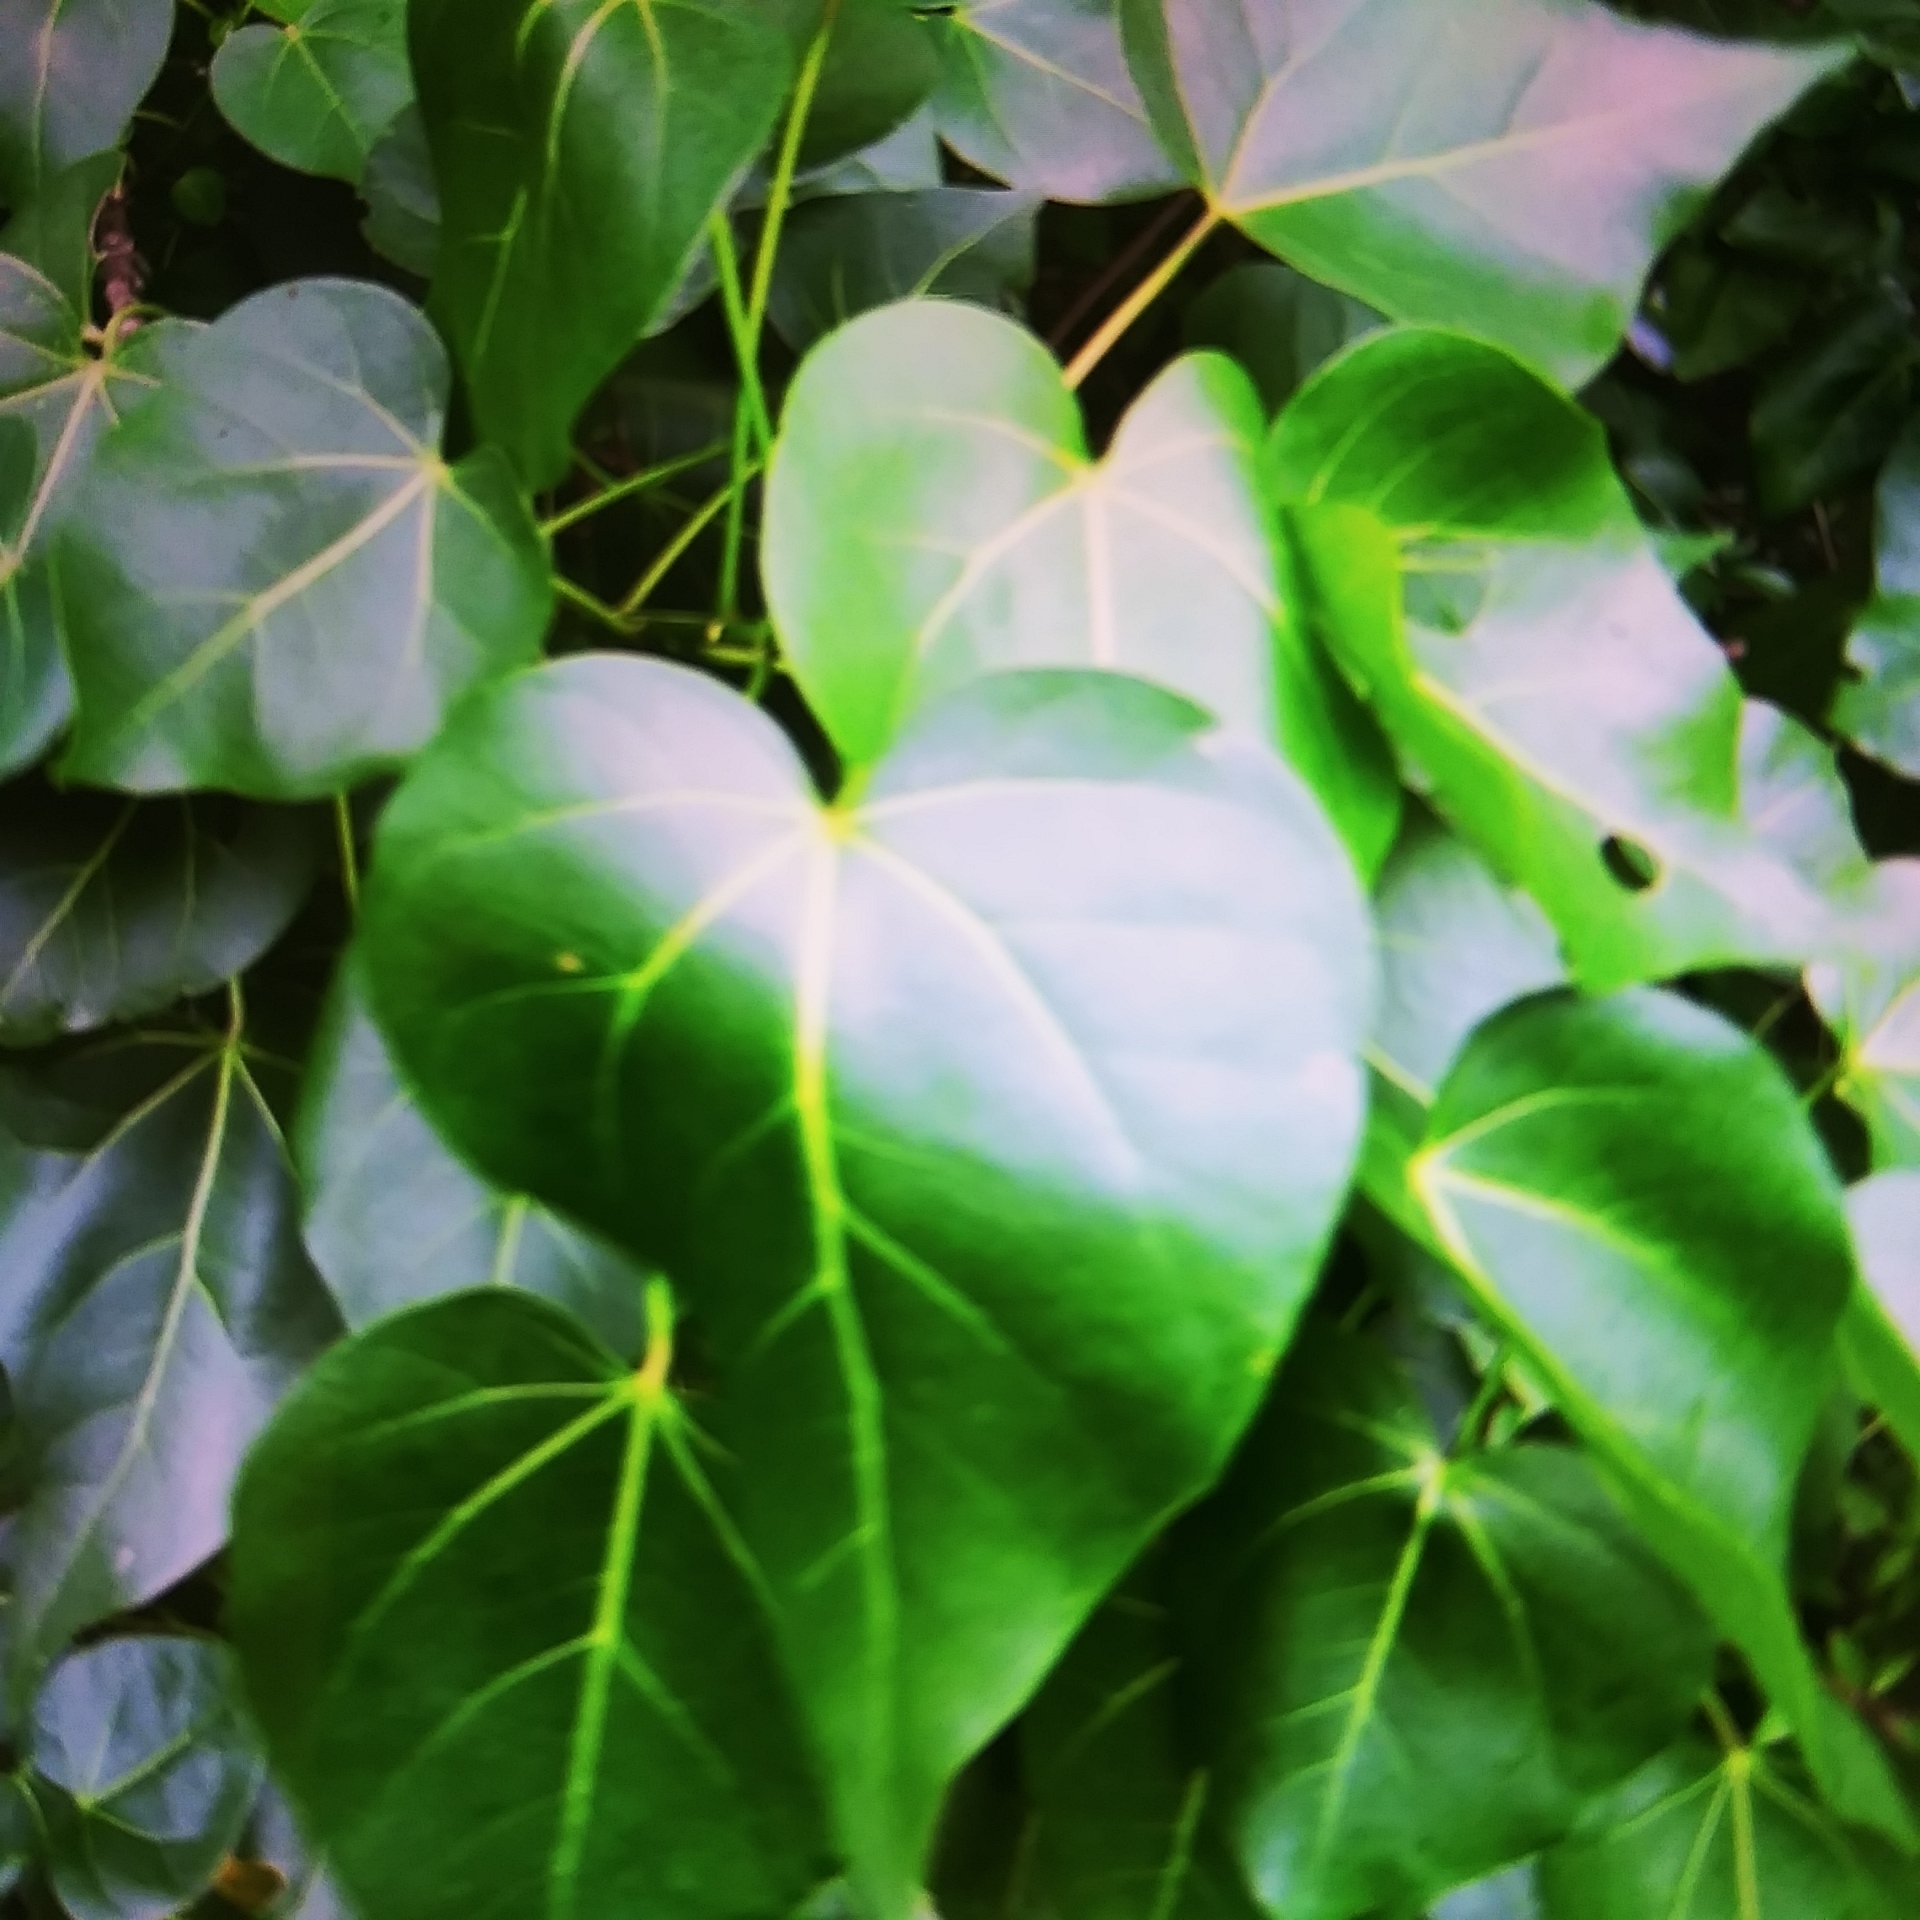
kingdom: Plantae
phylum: Tracheophyta
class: Magnoliopsida
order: Malvales
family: Malvaceae
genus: Thespesia
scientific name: Thespesia populnea
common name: Seaside mahoe
